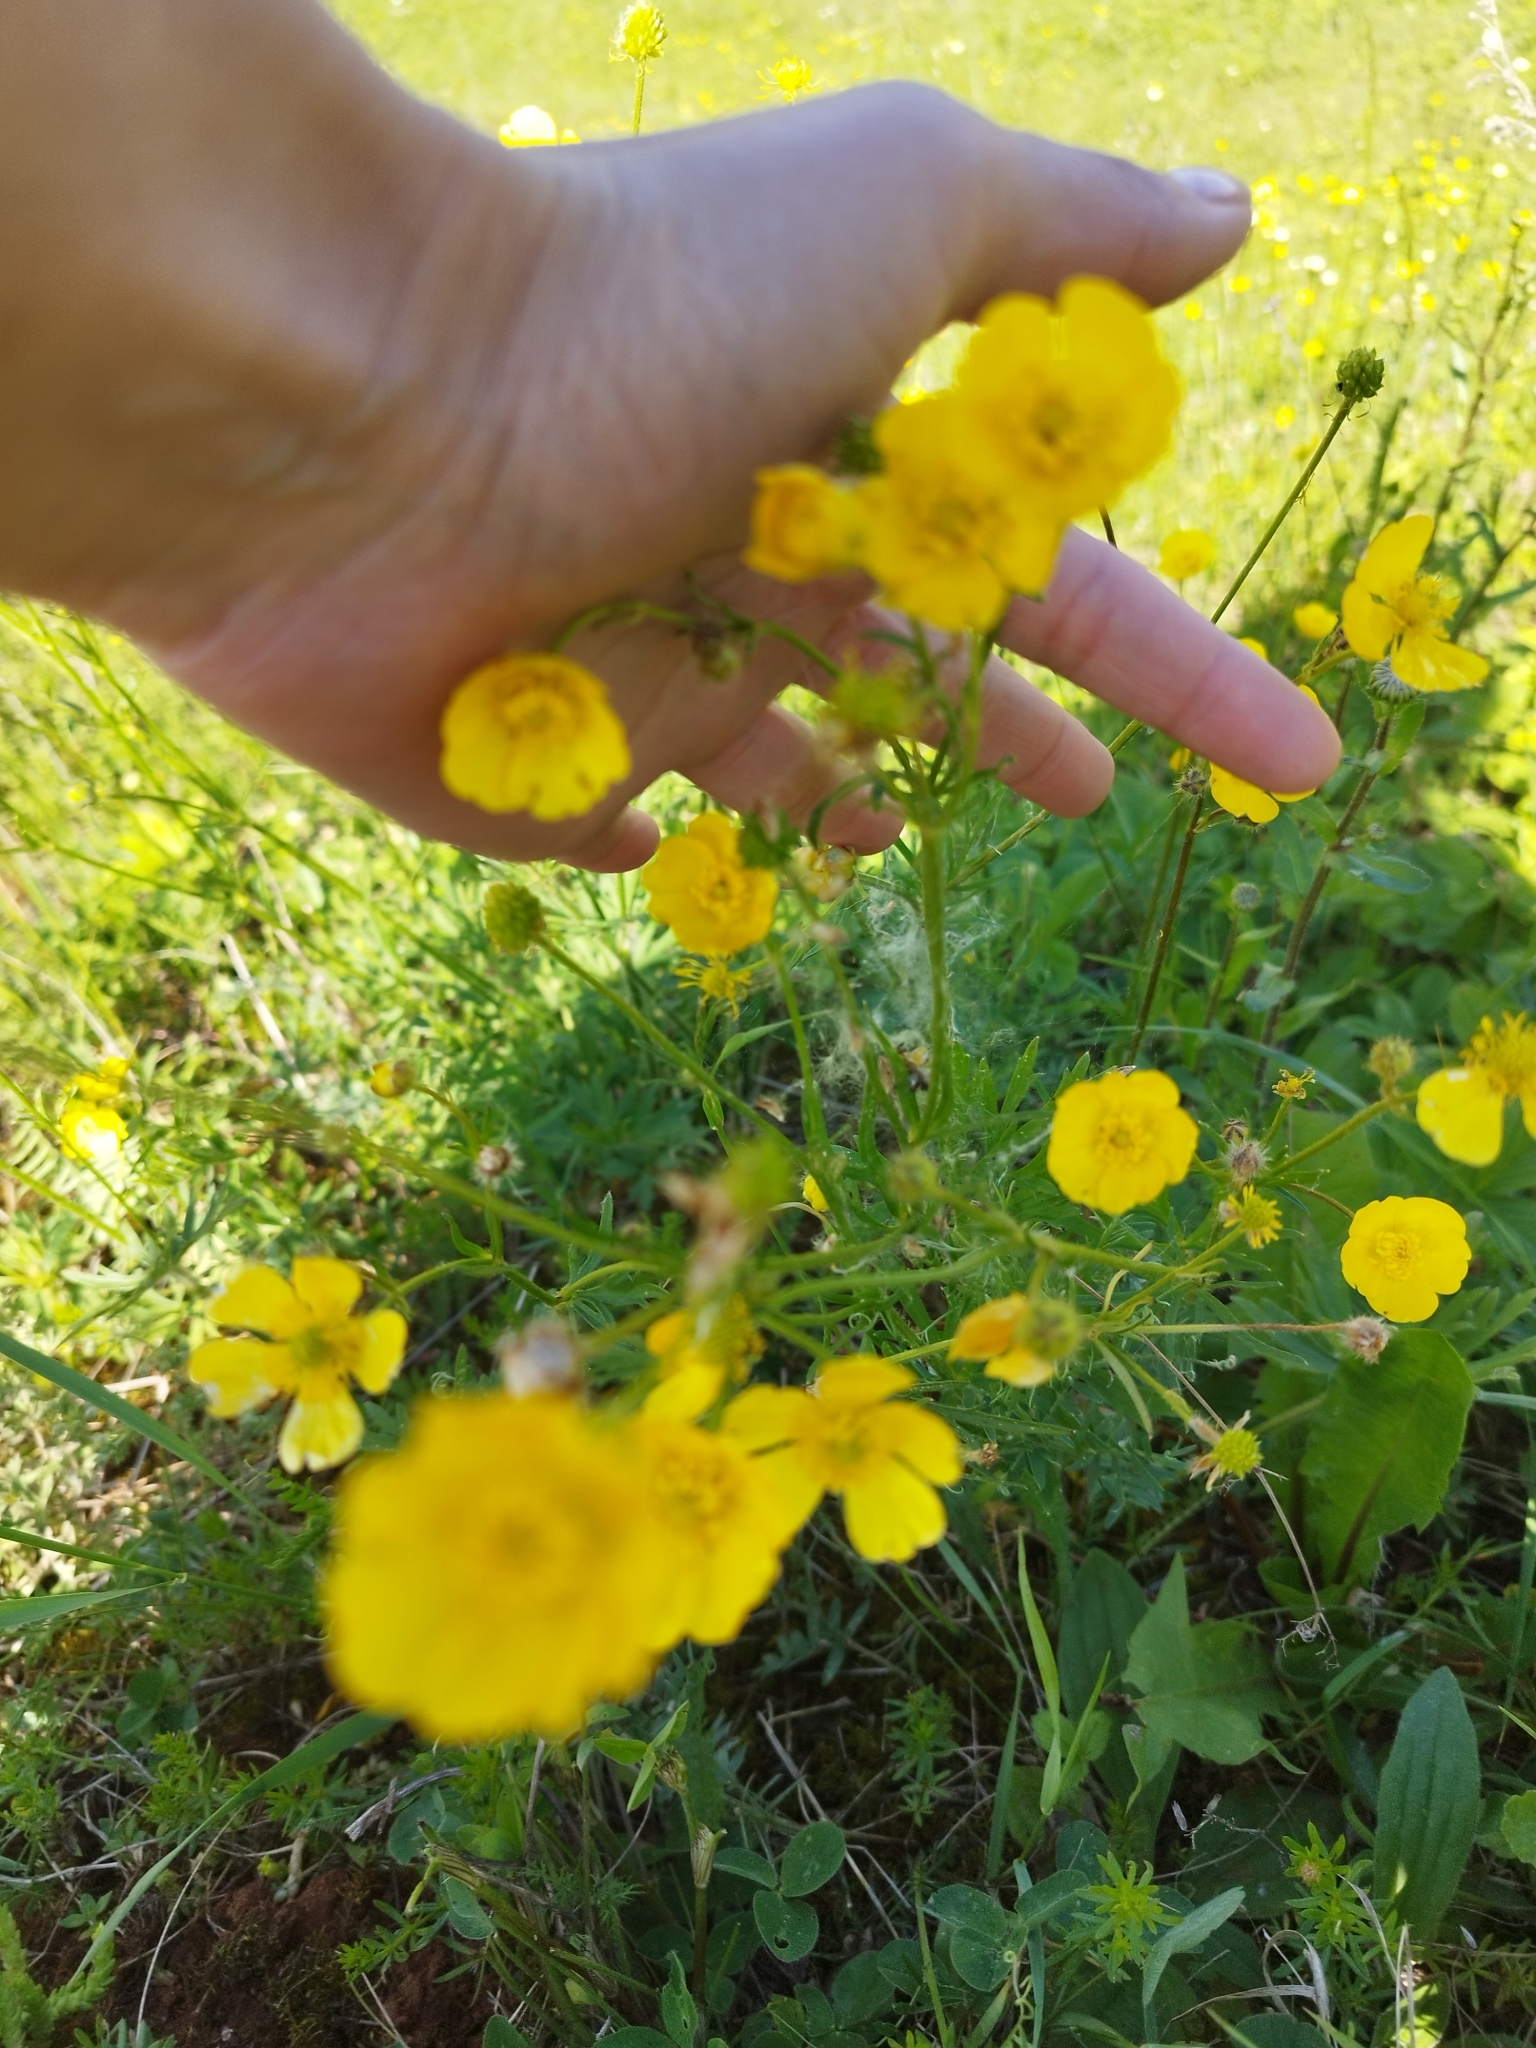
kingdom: Plantae
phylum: Tracheophyta
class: Magnoliopsida
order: Ranunculales
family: Ranunculaceae
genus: Ranunculus
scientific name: Ranunculus polyanthemos
